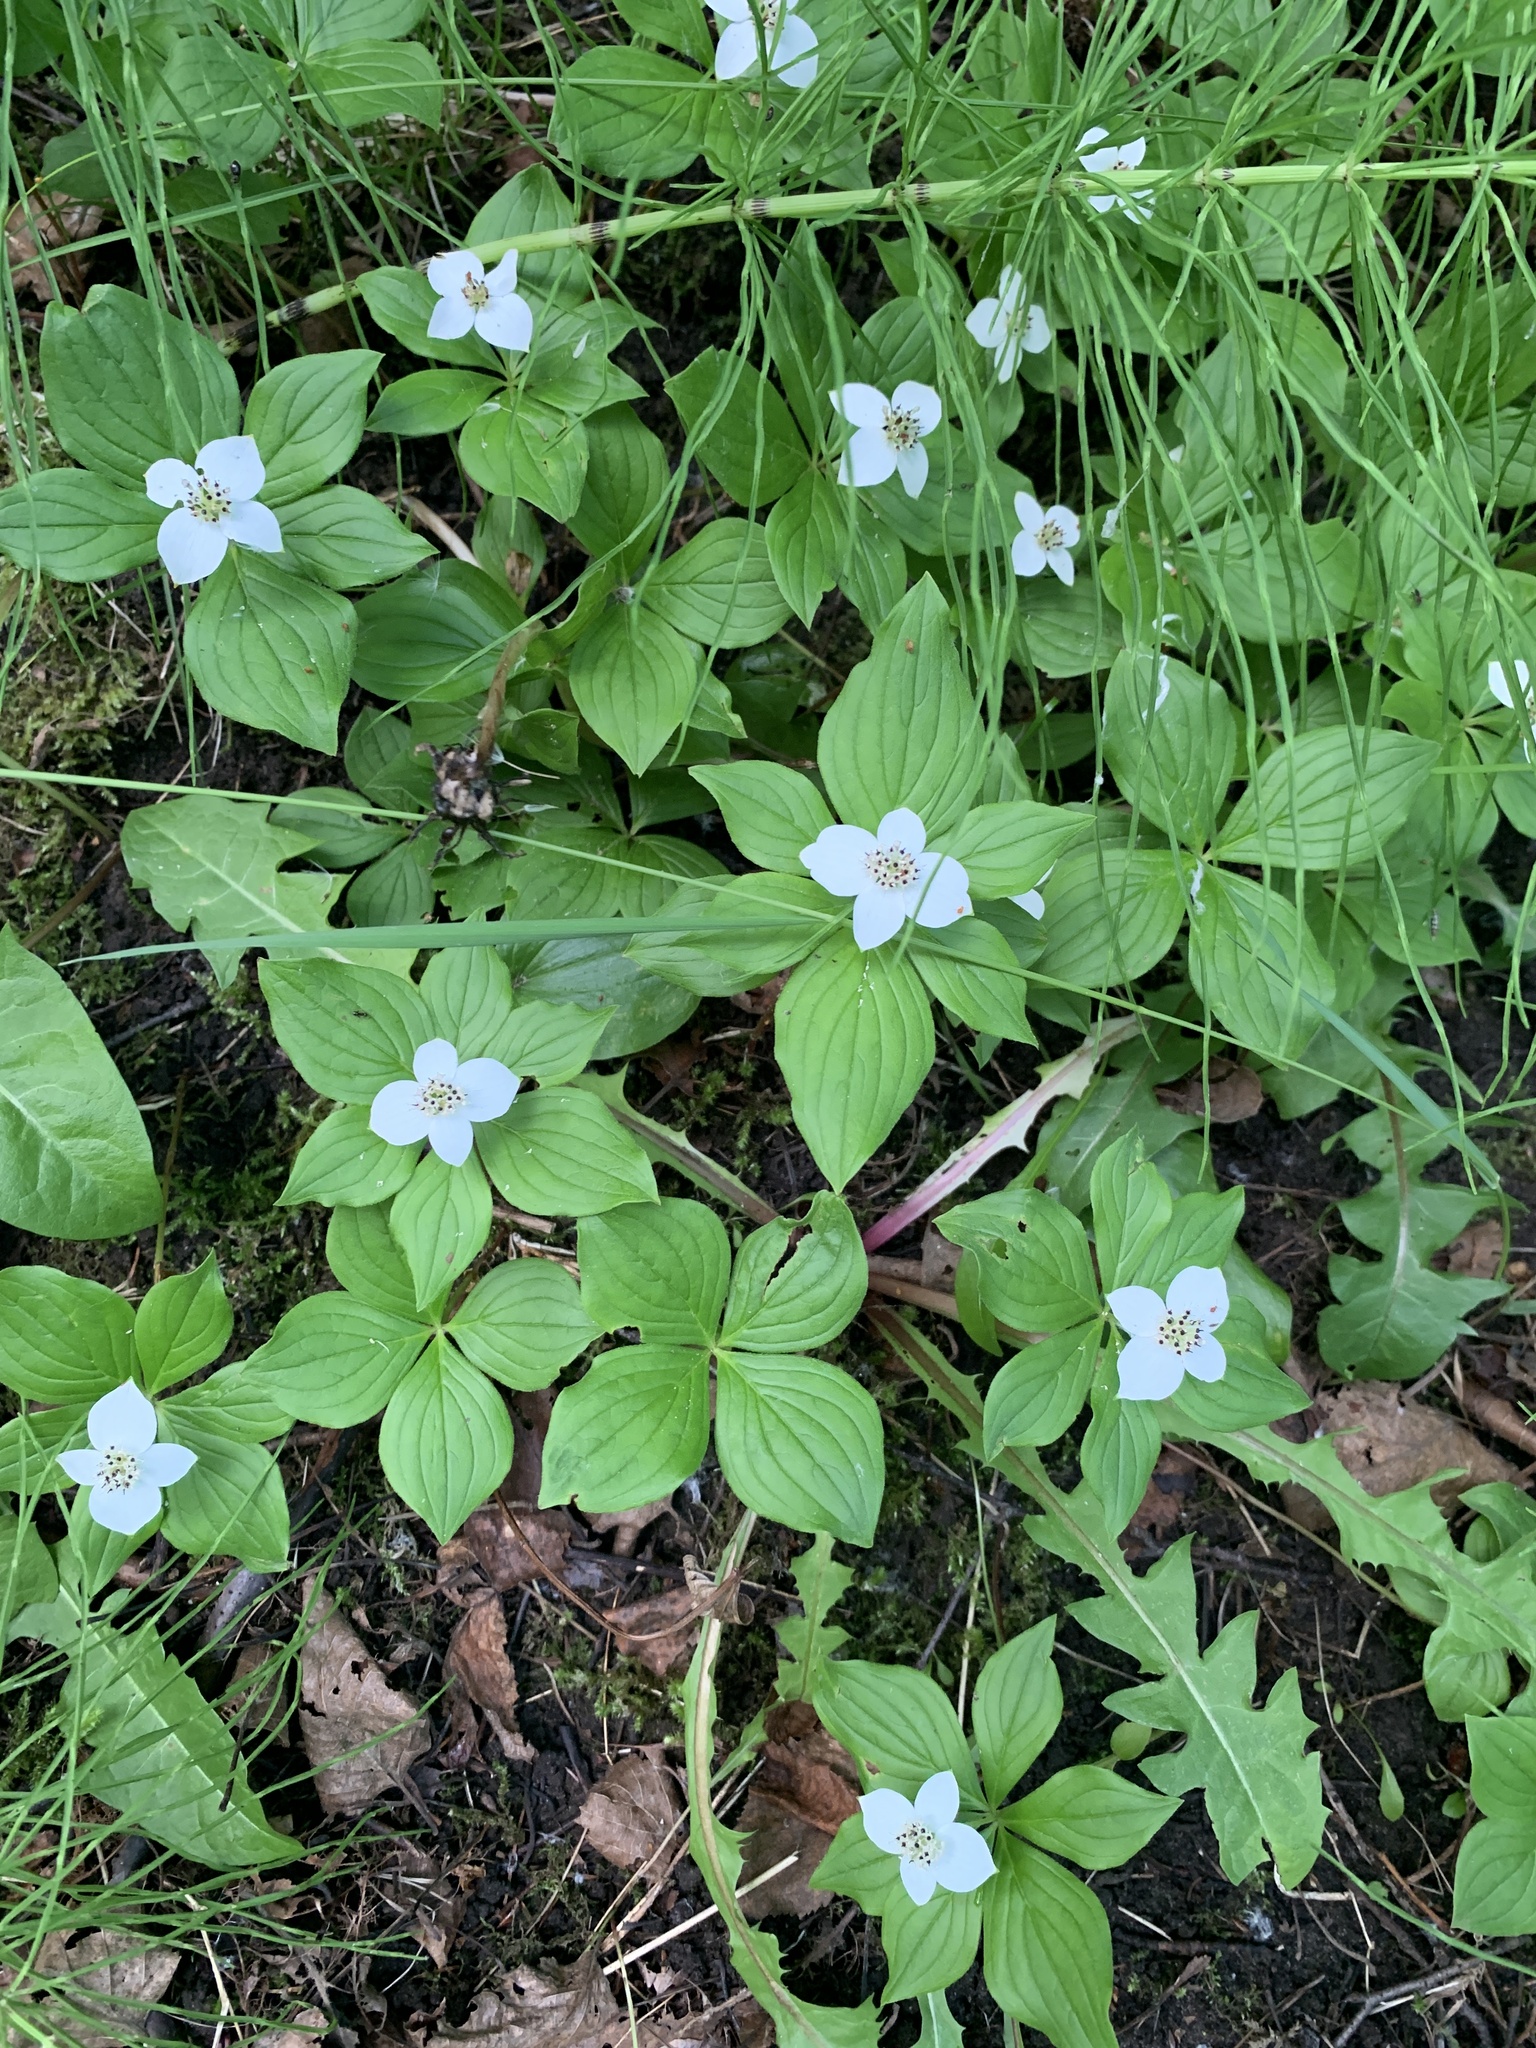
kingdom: Plantae
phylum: Tracheophyta
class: Magnoliopsida
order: Cornales
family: Cornaceae
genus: Cornus
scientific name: Cornus canadensis
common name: Creeping dogwood
